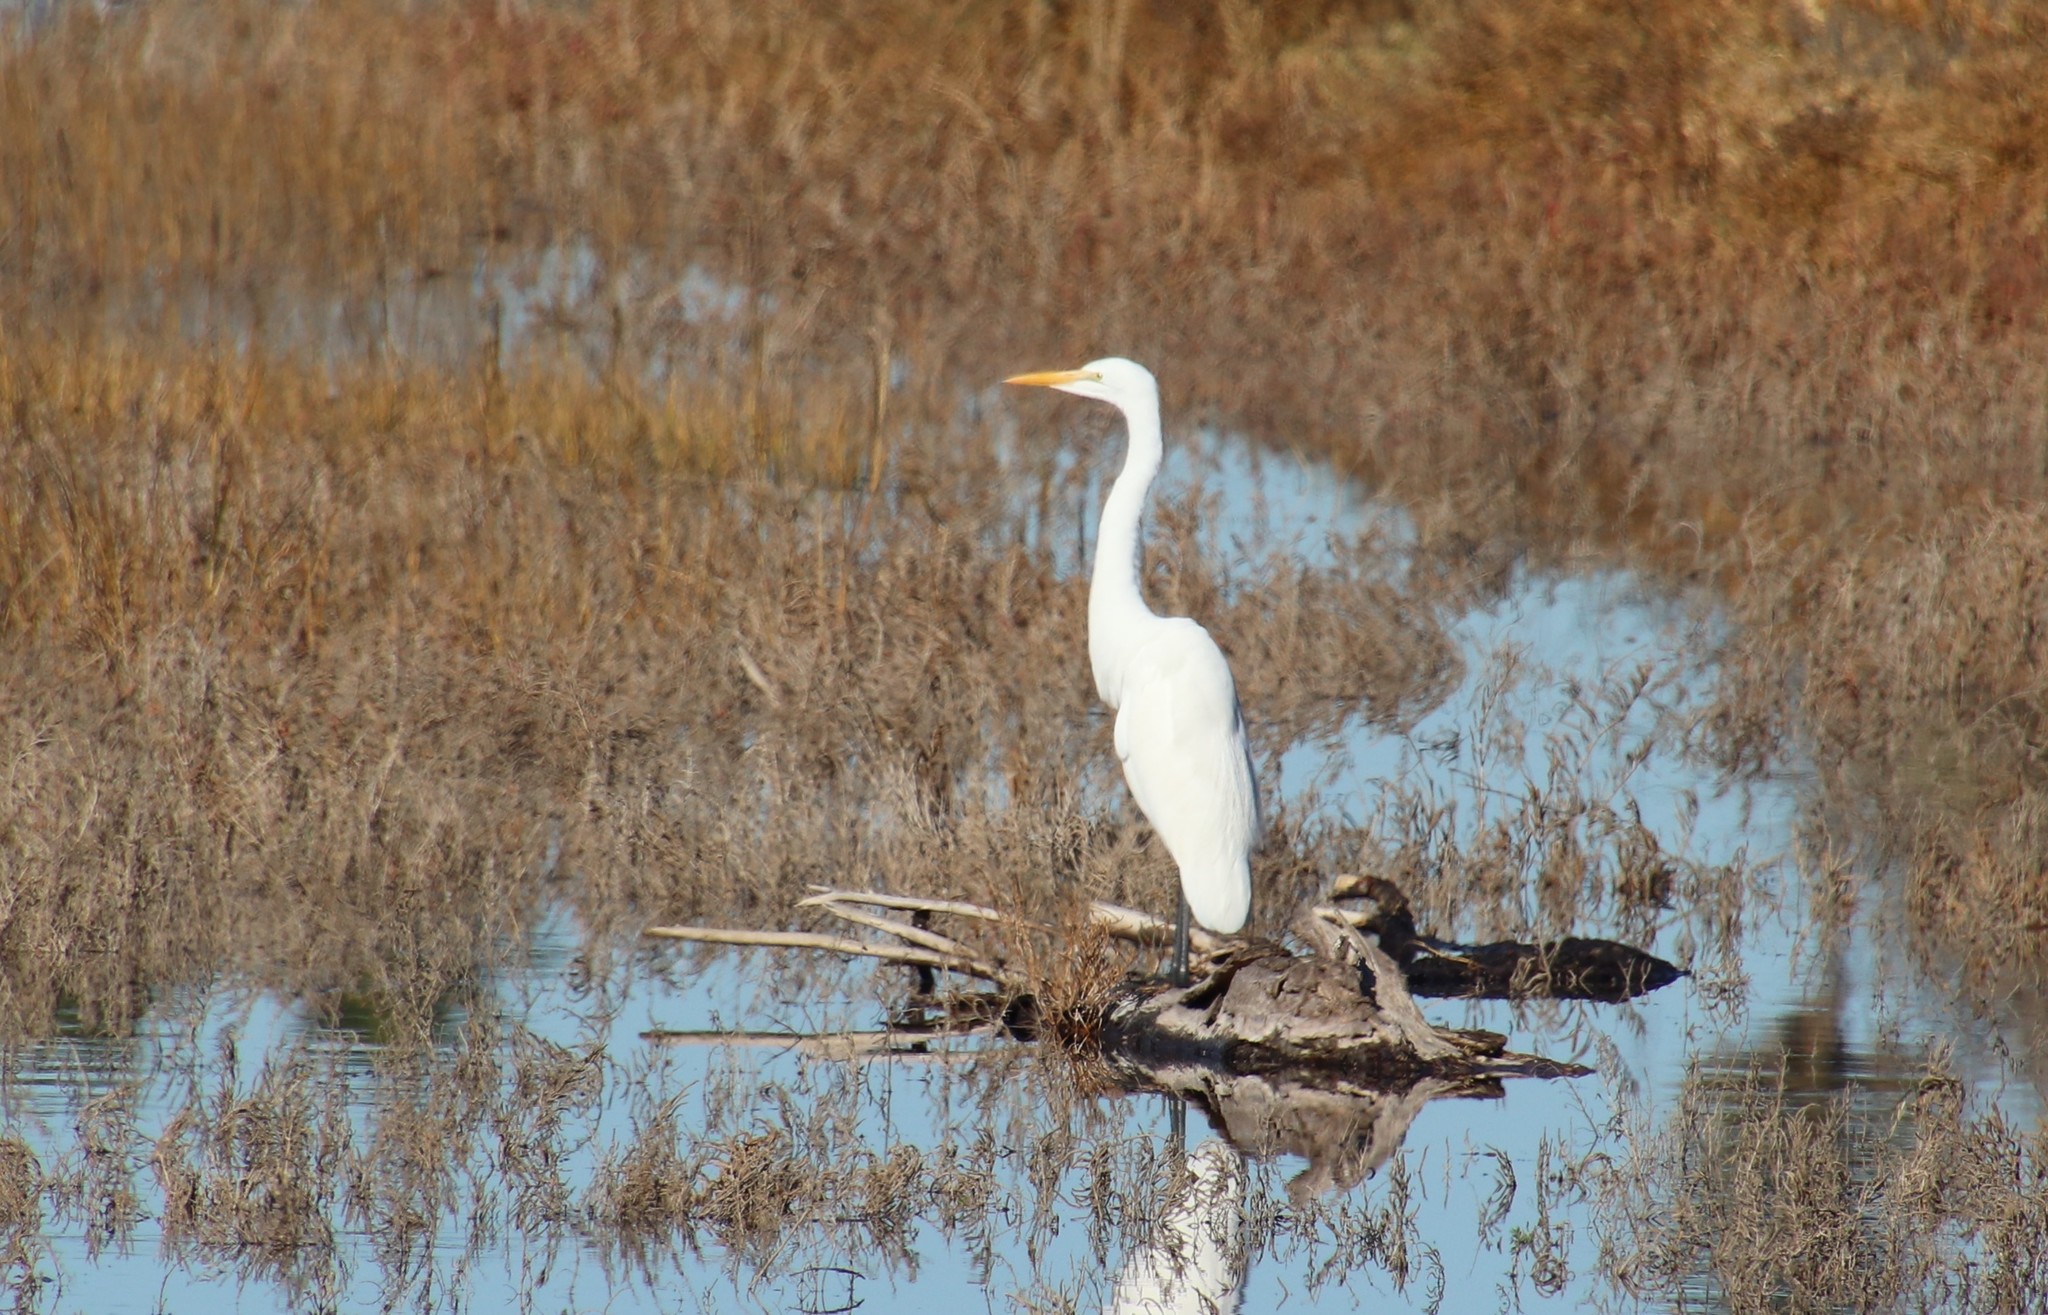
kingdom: Animalia
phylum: Chordata
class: Aves
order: Pelecaniformes
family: Ardeidae
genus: Ardea
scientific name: Ardea alba
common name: Great egret
